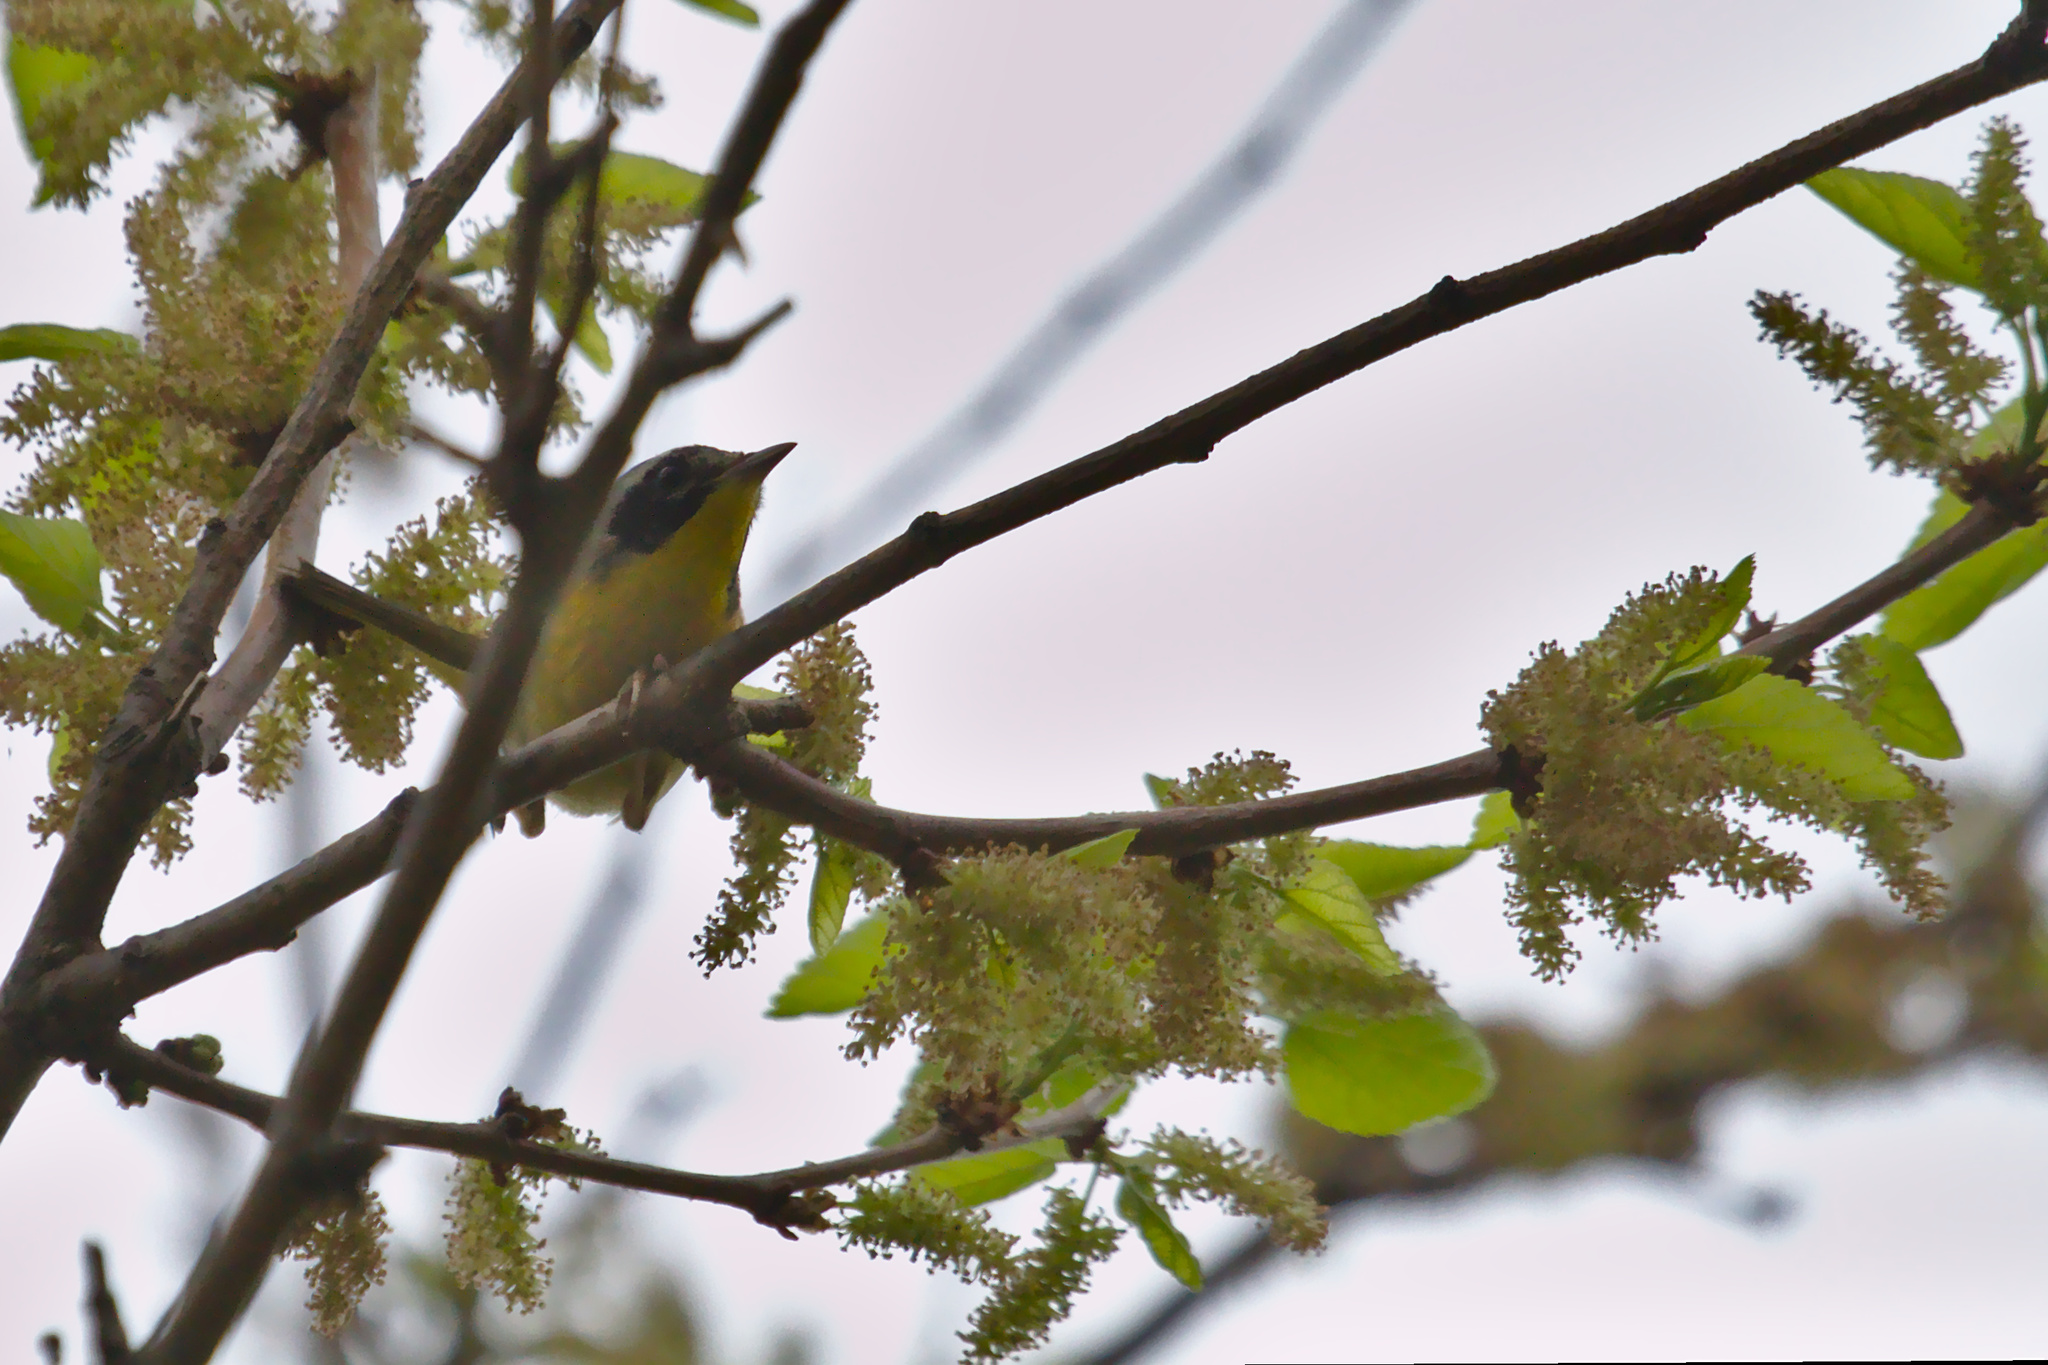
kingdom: Animalia
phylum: Chordata
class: Aves
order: Passeriformes
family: Parulidae
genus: Geothlypis
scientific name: Geothlypis trichas
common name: Common yellowthroat
